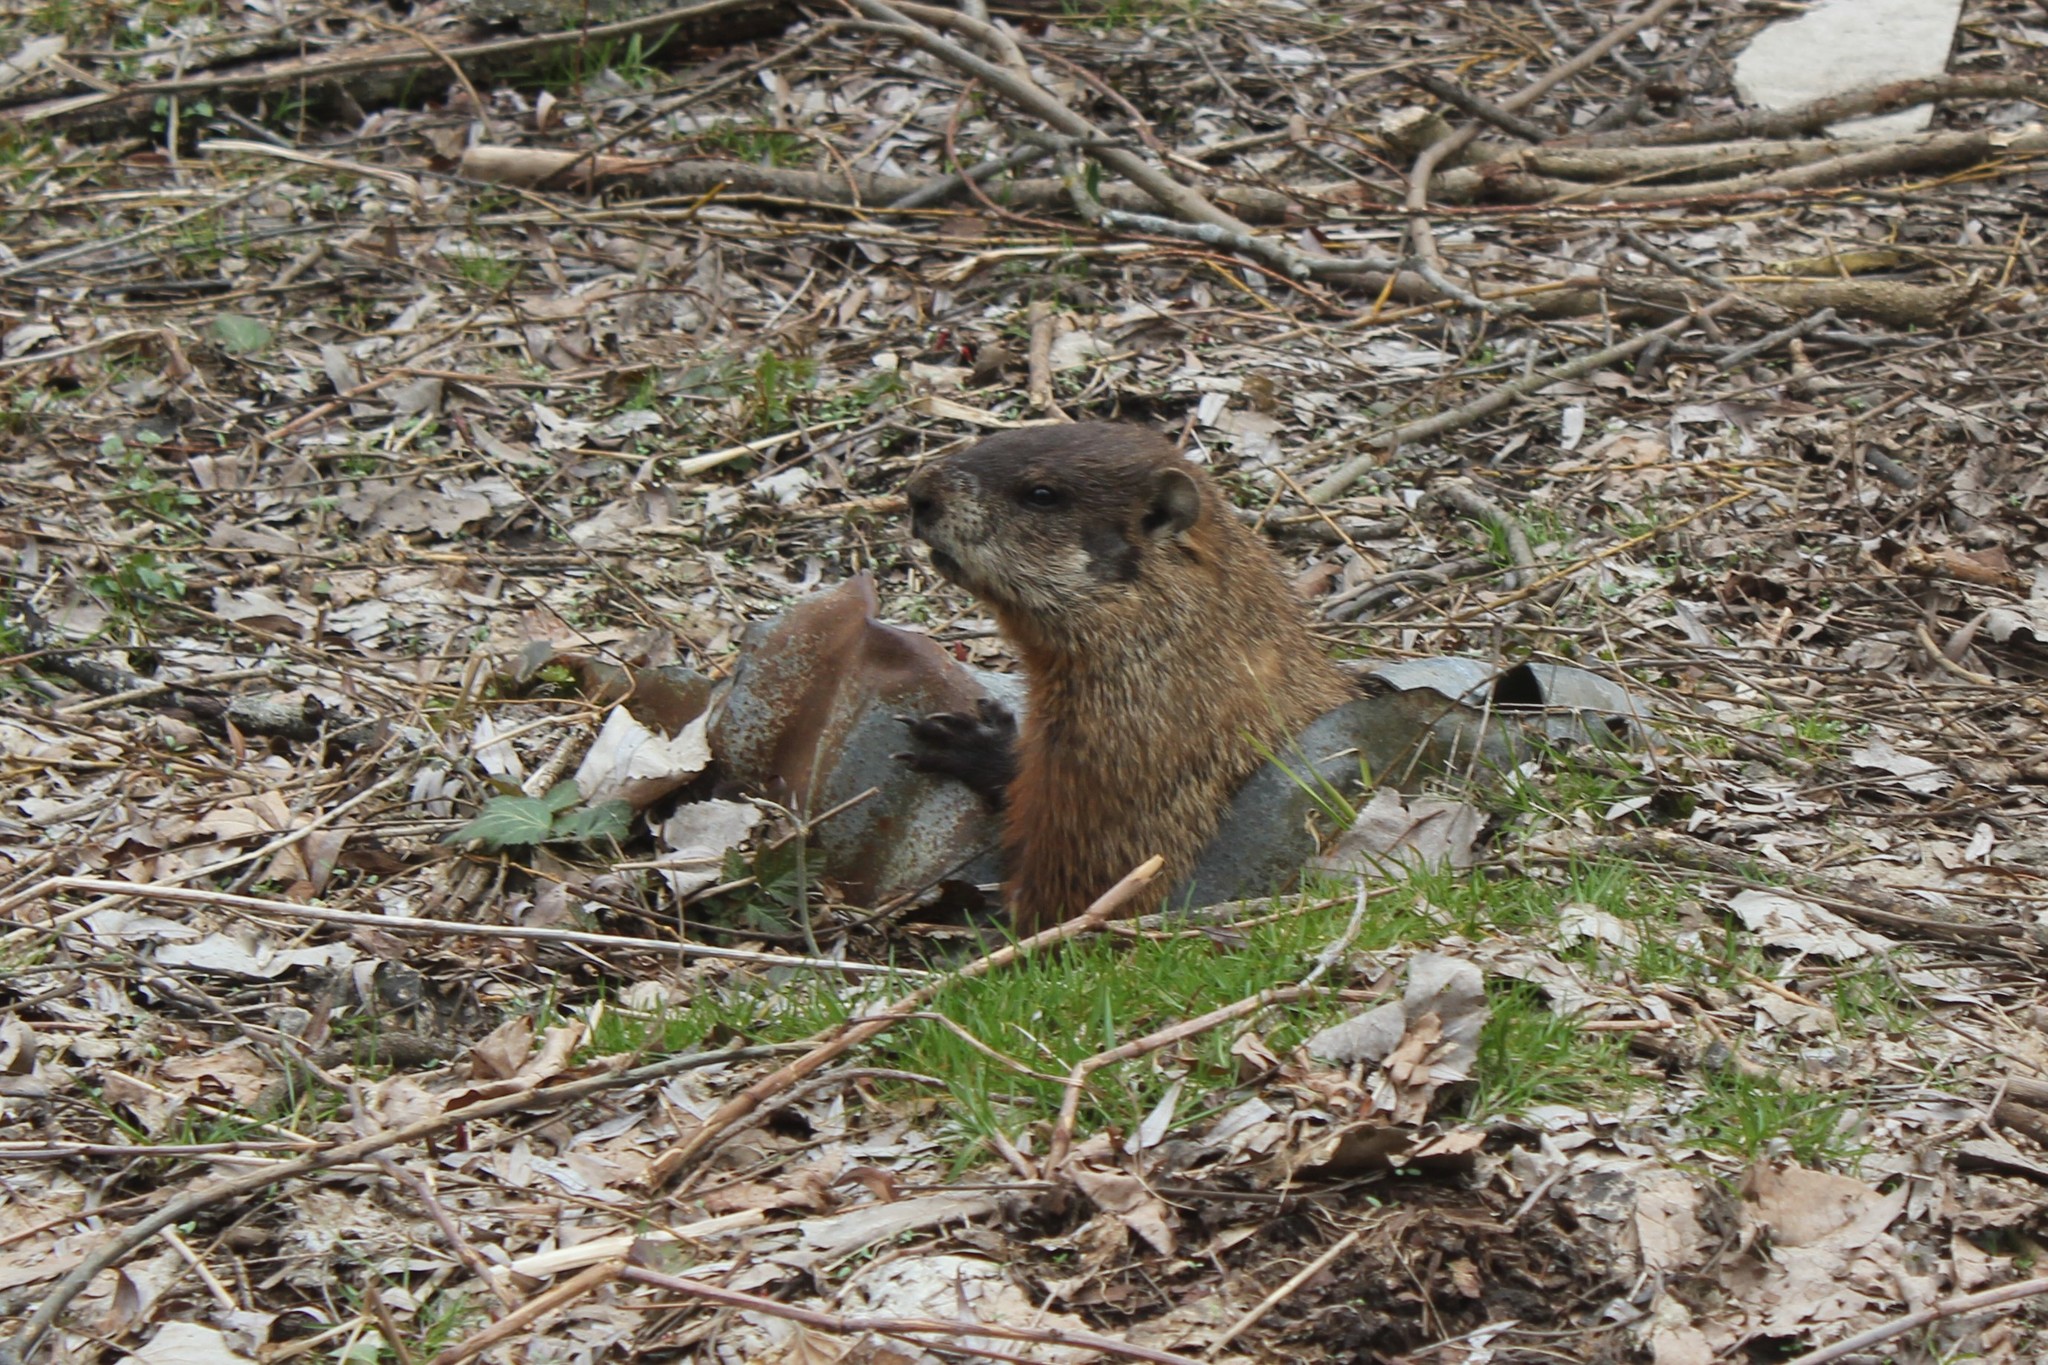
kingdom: Animalia
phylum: Chordata
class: Mammalia
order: Rodentia
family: Sciuridae
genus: Marmota
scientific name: Marmota monax
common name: Groundhog
